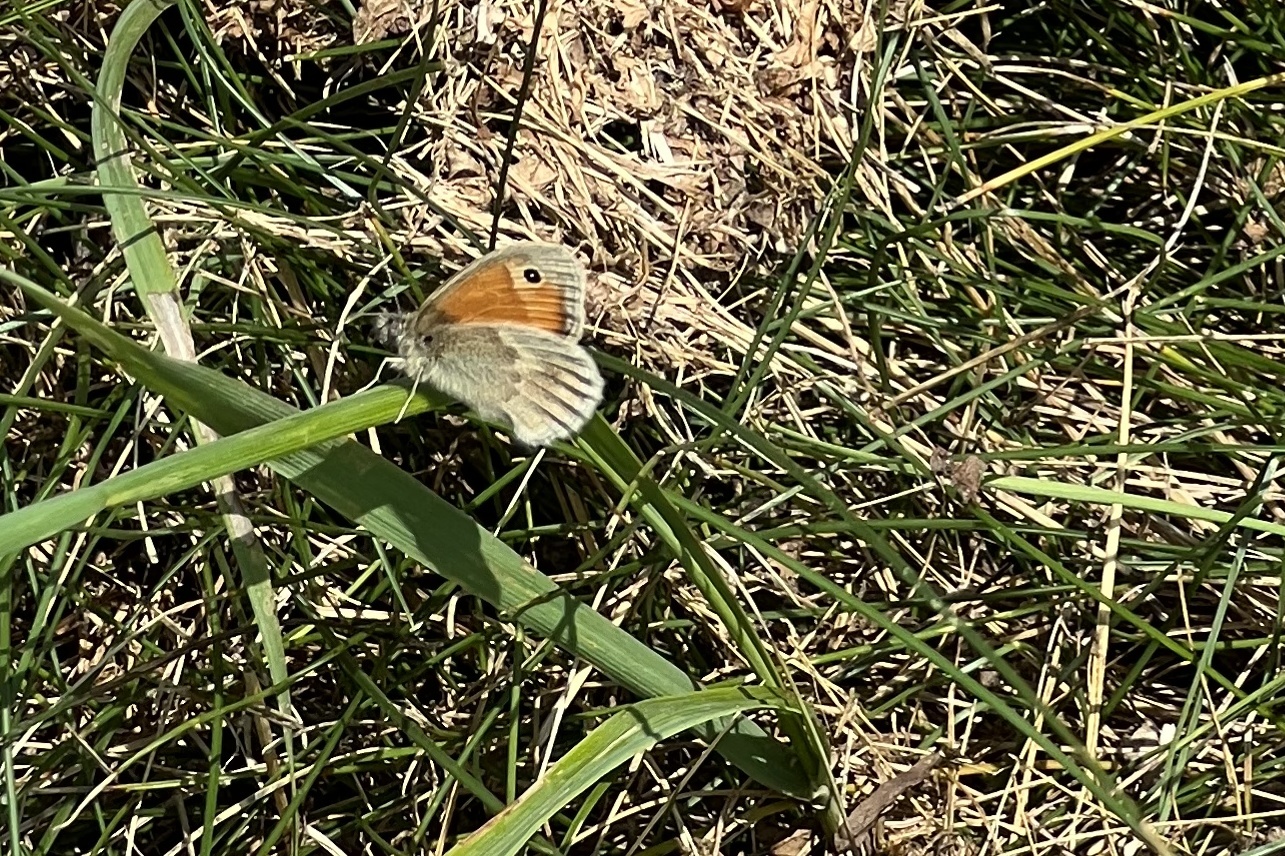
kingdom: Animalia
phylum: Arthropoda
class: Insecta
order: Lepidoptera
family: Nymphalidae
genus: Coenonympha
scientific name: Coenonympha pamphilus
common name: Small heath
